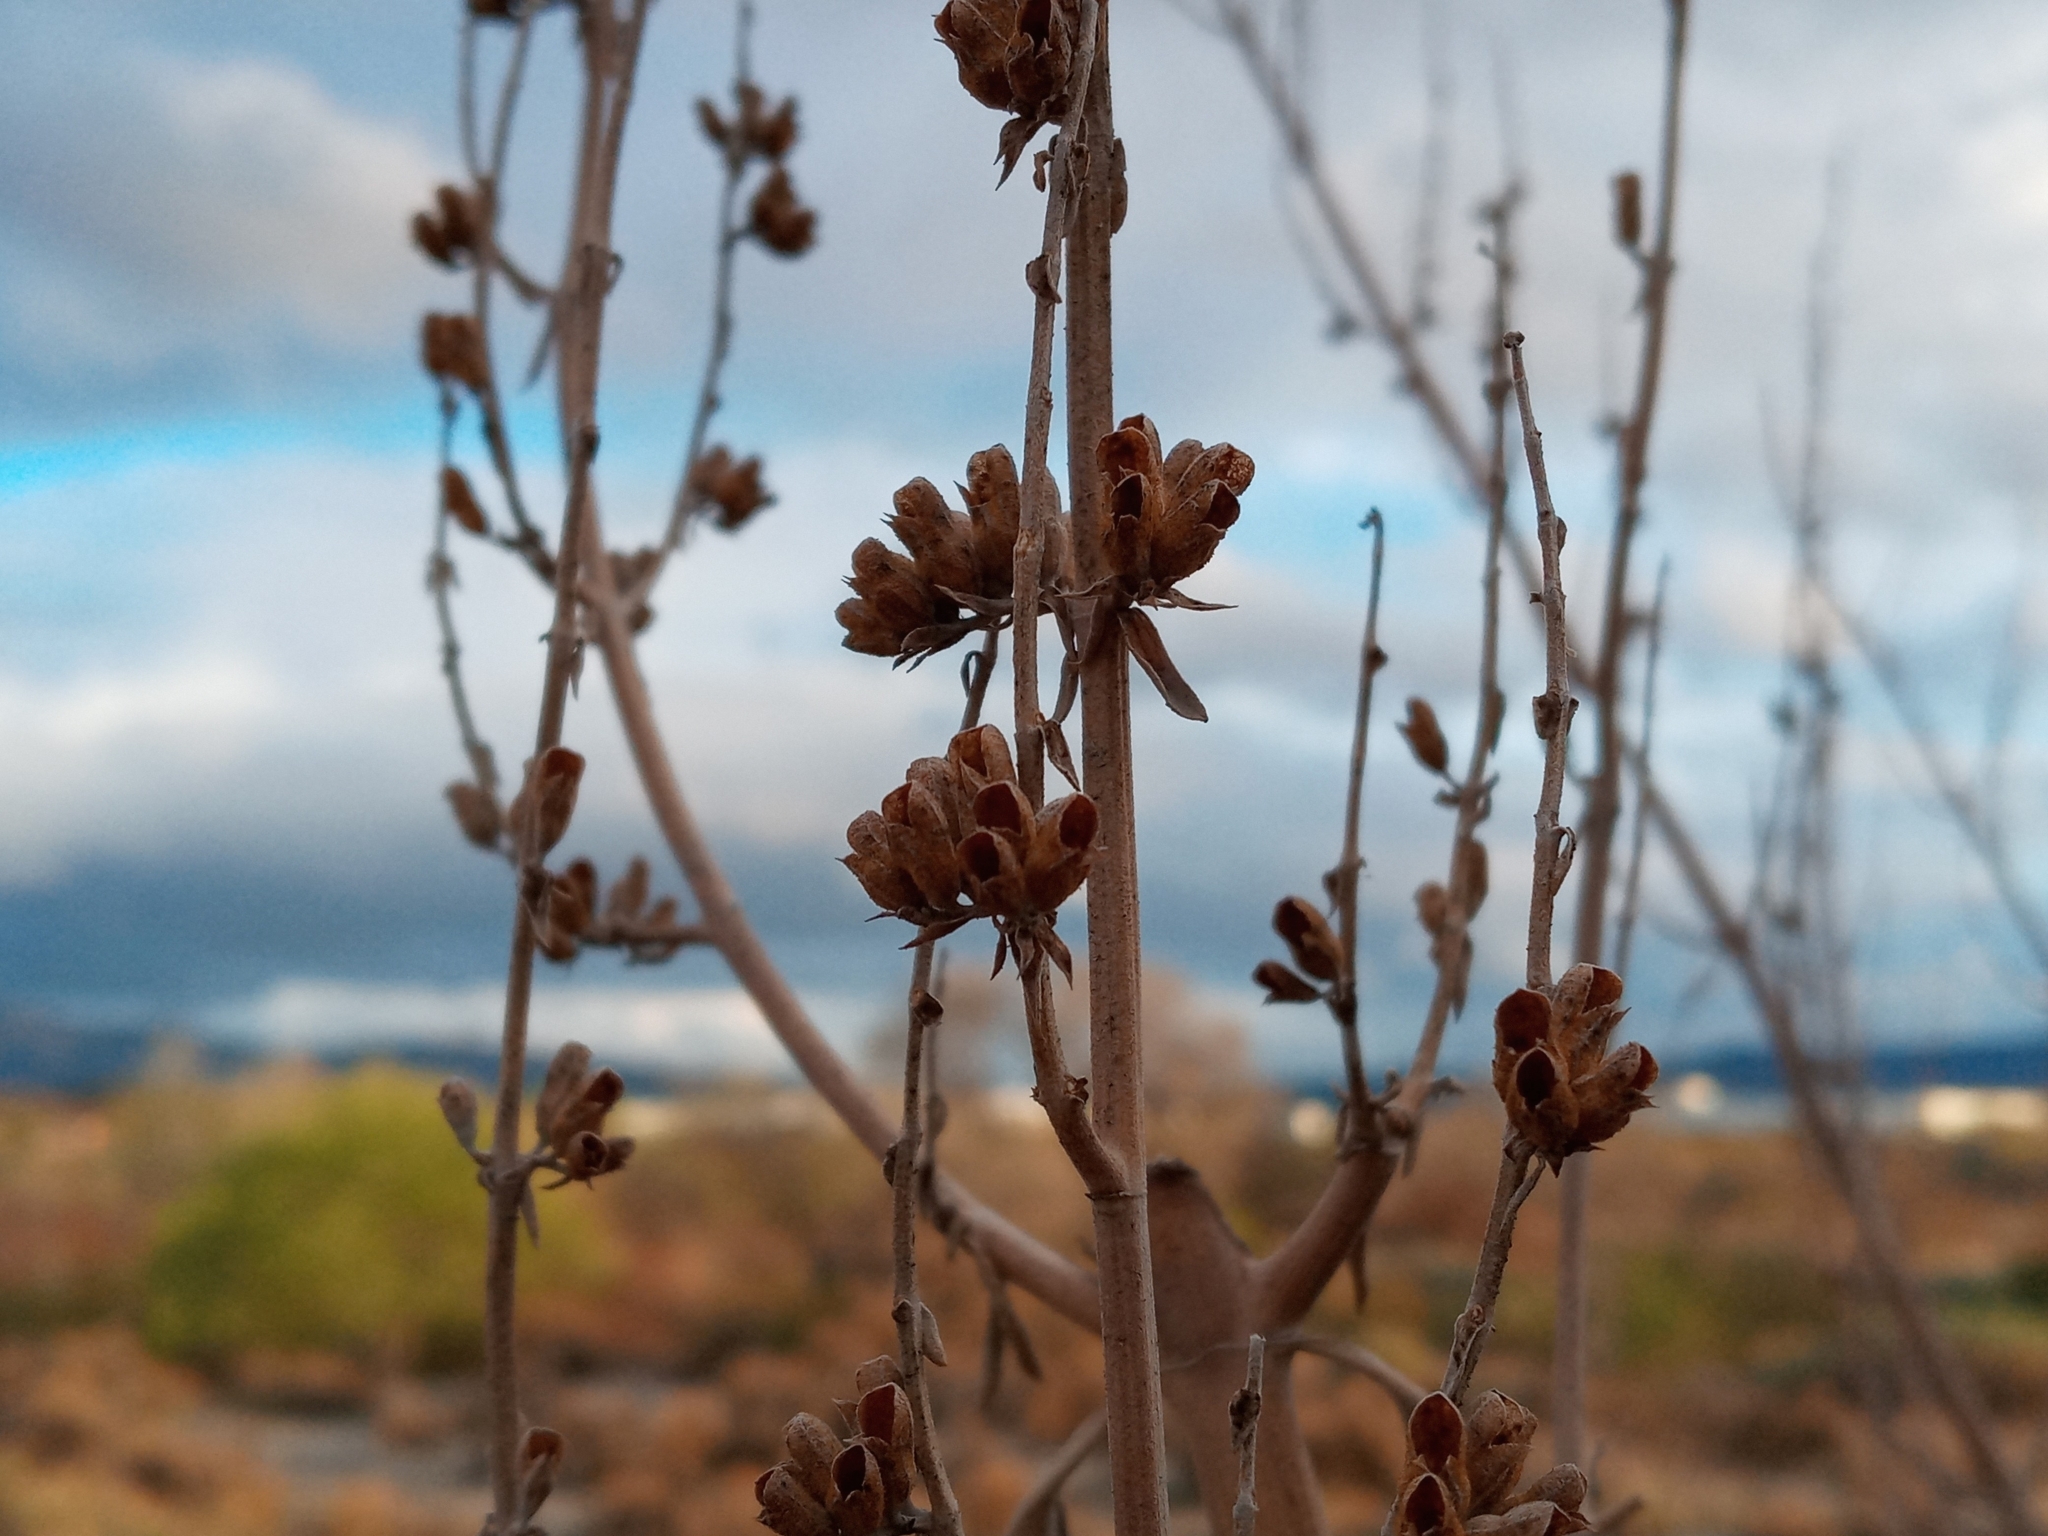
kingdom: Plantae
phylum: Tracheophyta
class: Magnoliopsida
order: Lamiales
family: Lamiaceae
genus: Salvia
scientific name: Salvia apiana
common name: White sage
